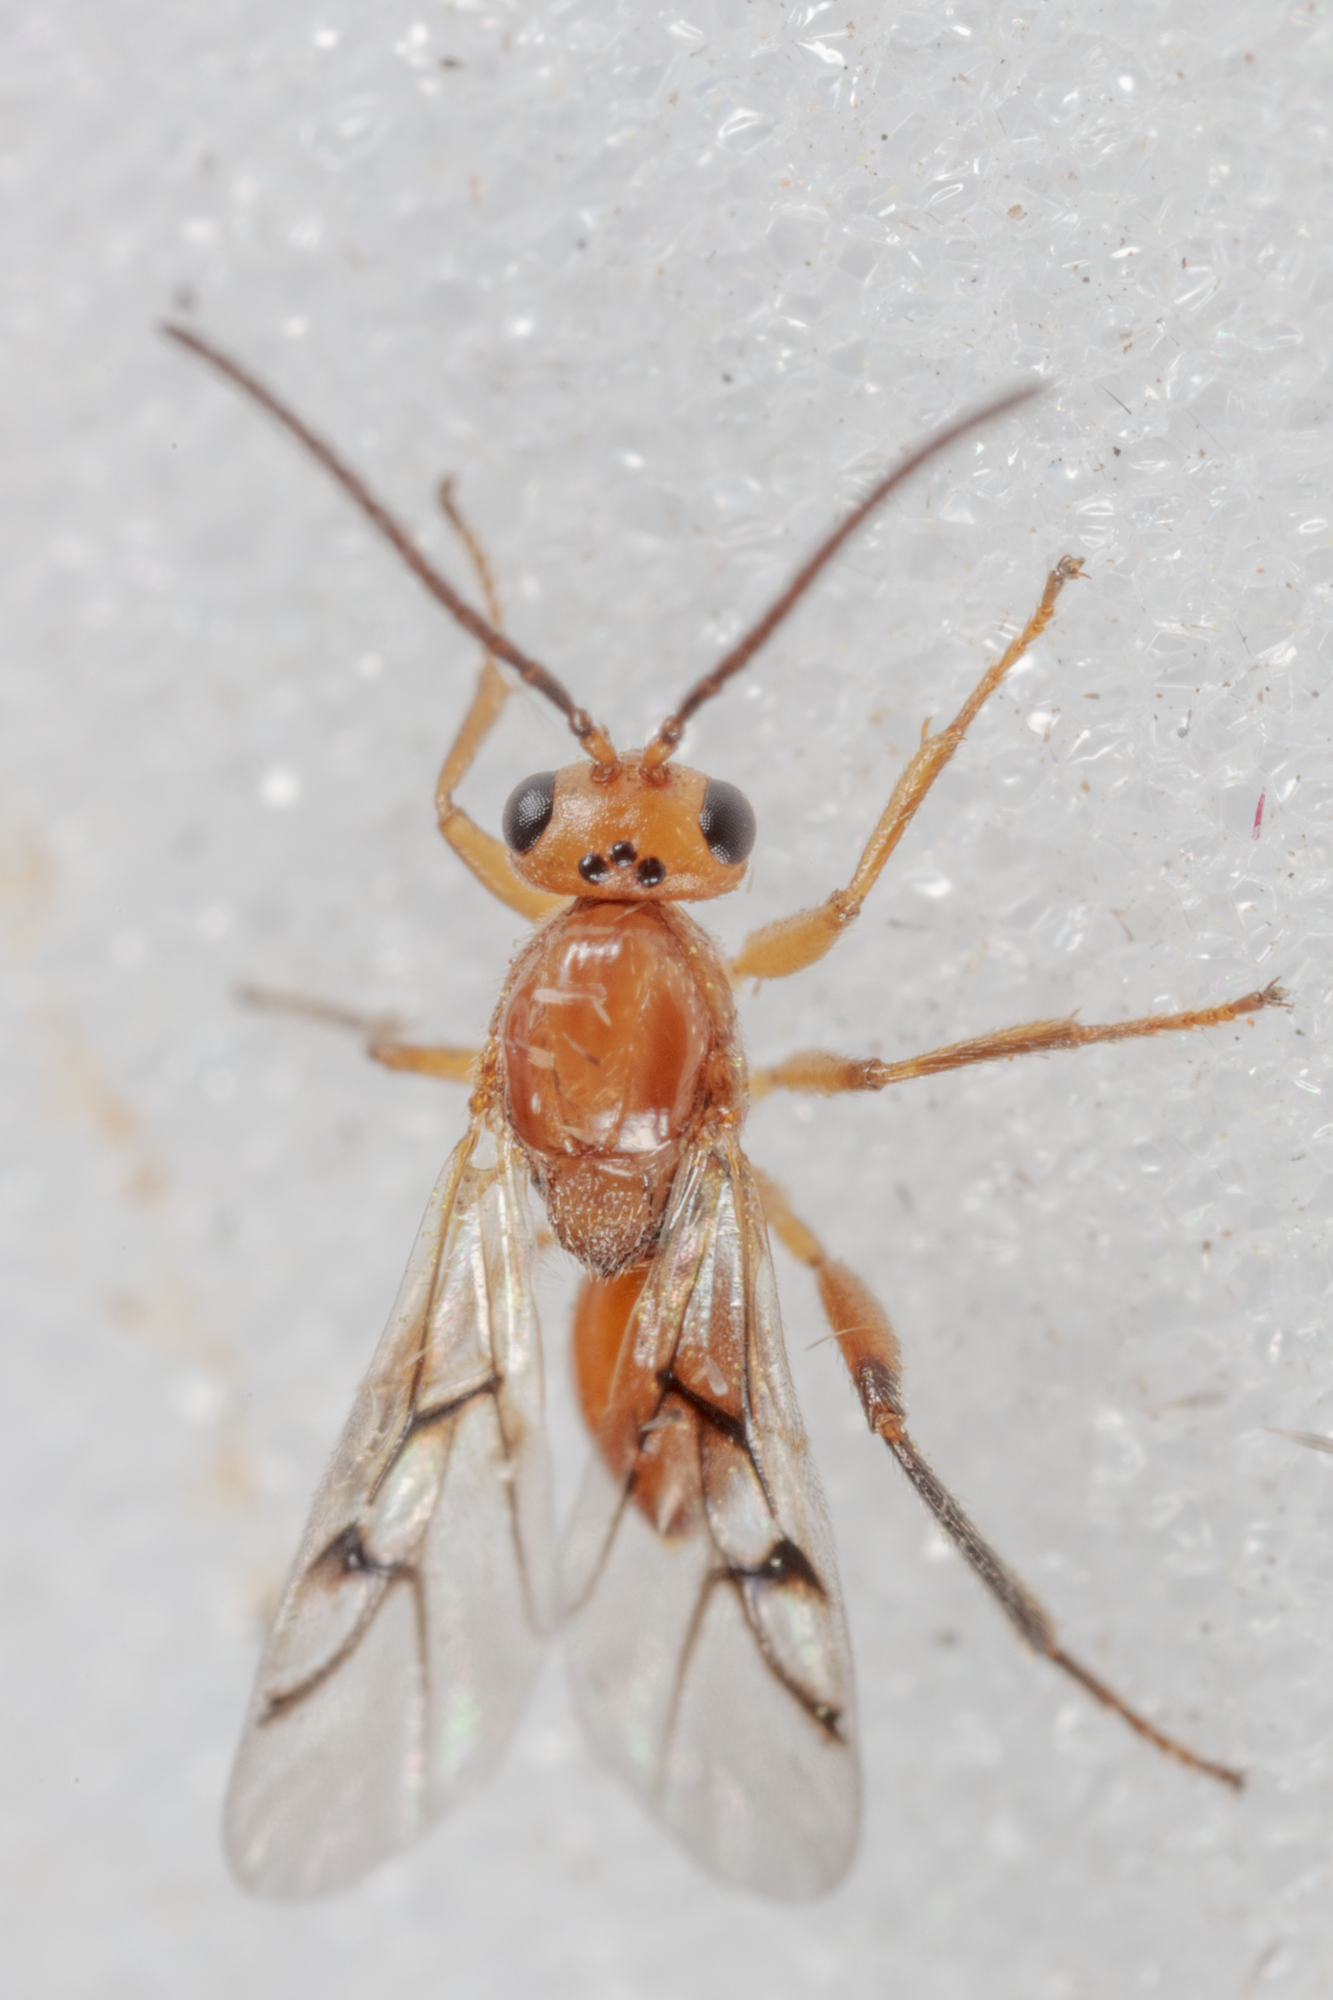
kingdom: Animalia
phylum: Arthropoda
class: Insecta
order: Hymenoptera
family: Cynipidae
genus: Belonocnema
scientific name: Belonocnema kinseyi
